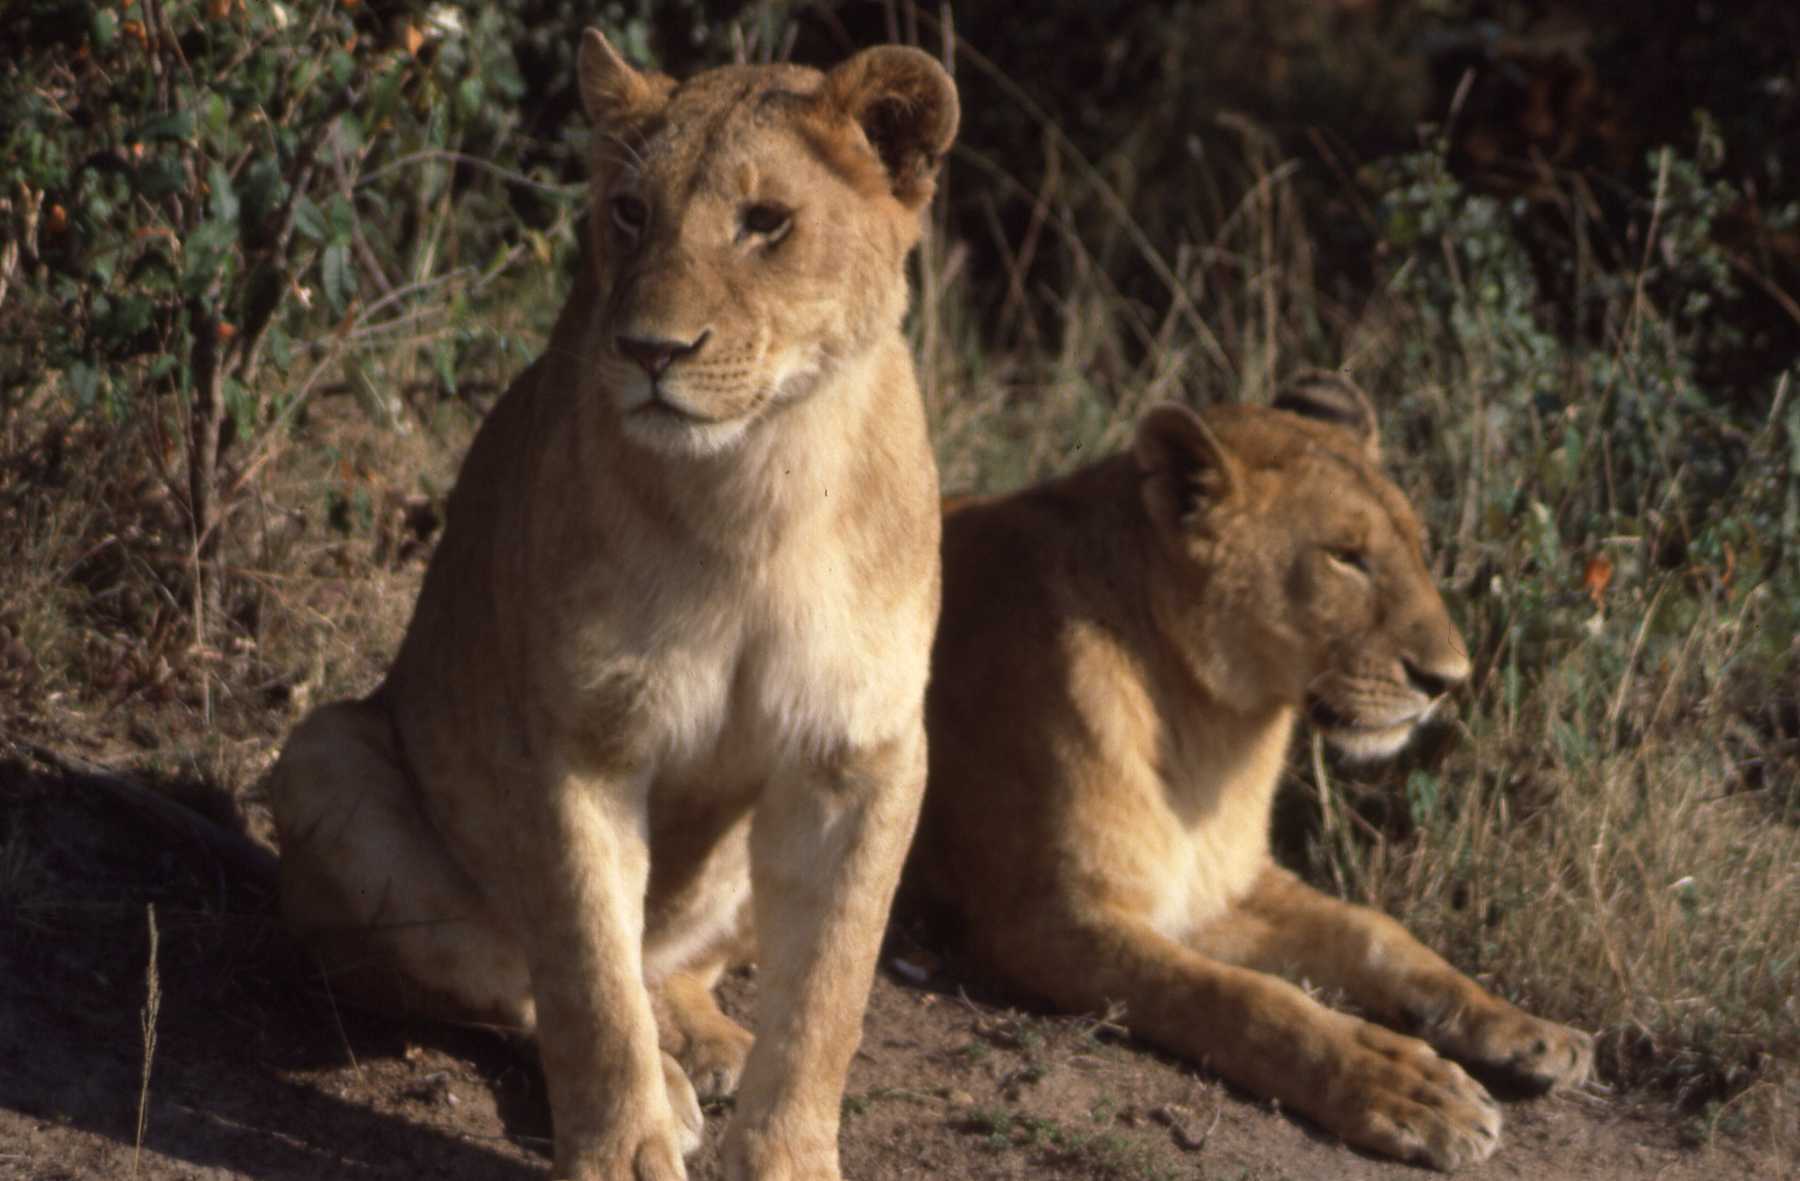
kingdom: Animalia
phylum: Chordata
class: Mammalia
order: Carnivora
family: Felidae
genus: Panthera
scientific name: Panthera leo
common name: Lion
